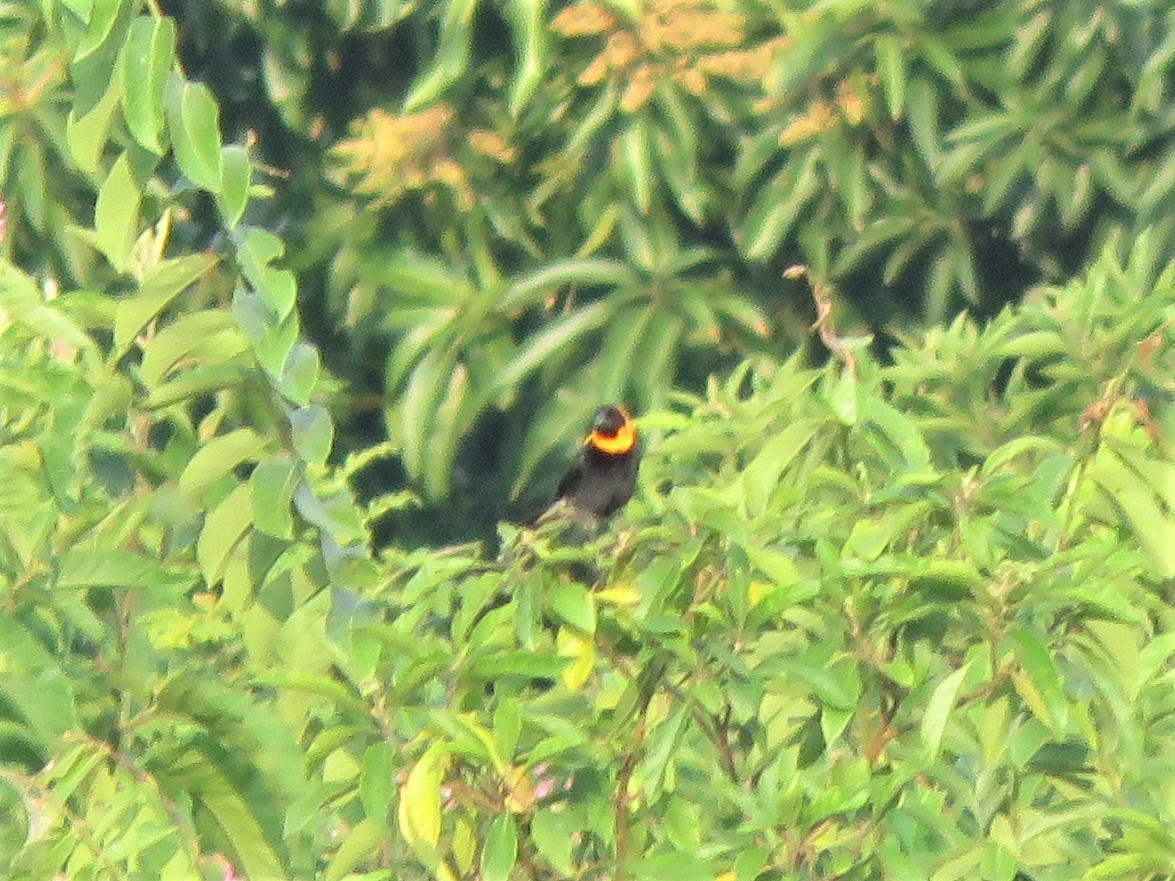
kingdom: Animalia
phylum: Chordata
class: Aves
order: Passeriformes
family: Ploceidae
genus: Euplectes
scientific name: Euplectes gierowii
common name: Black bishop
